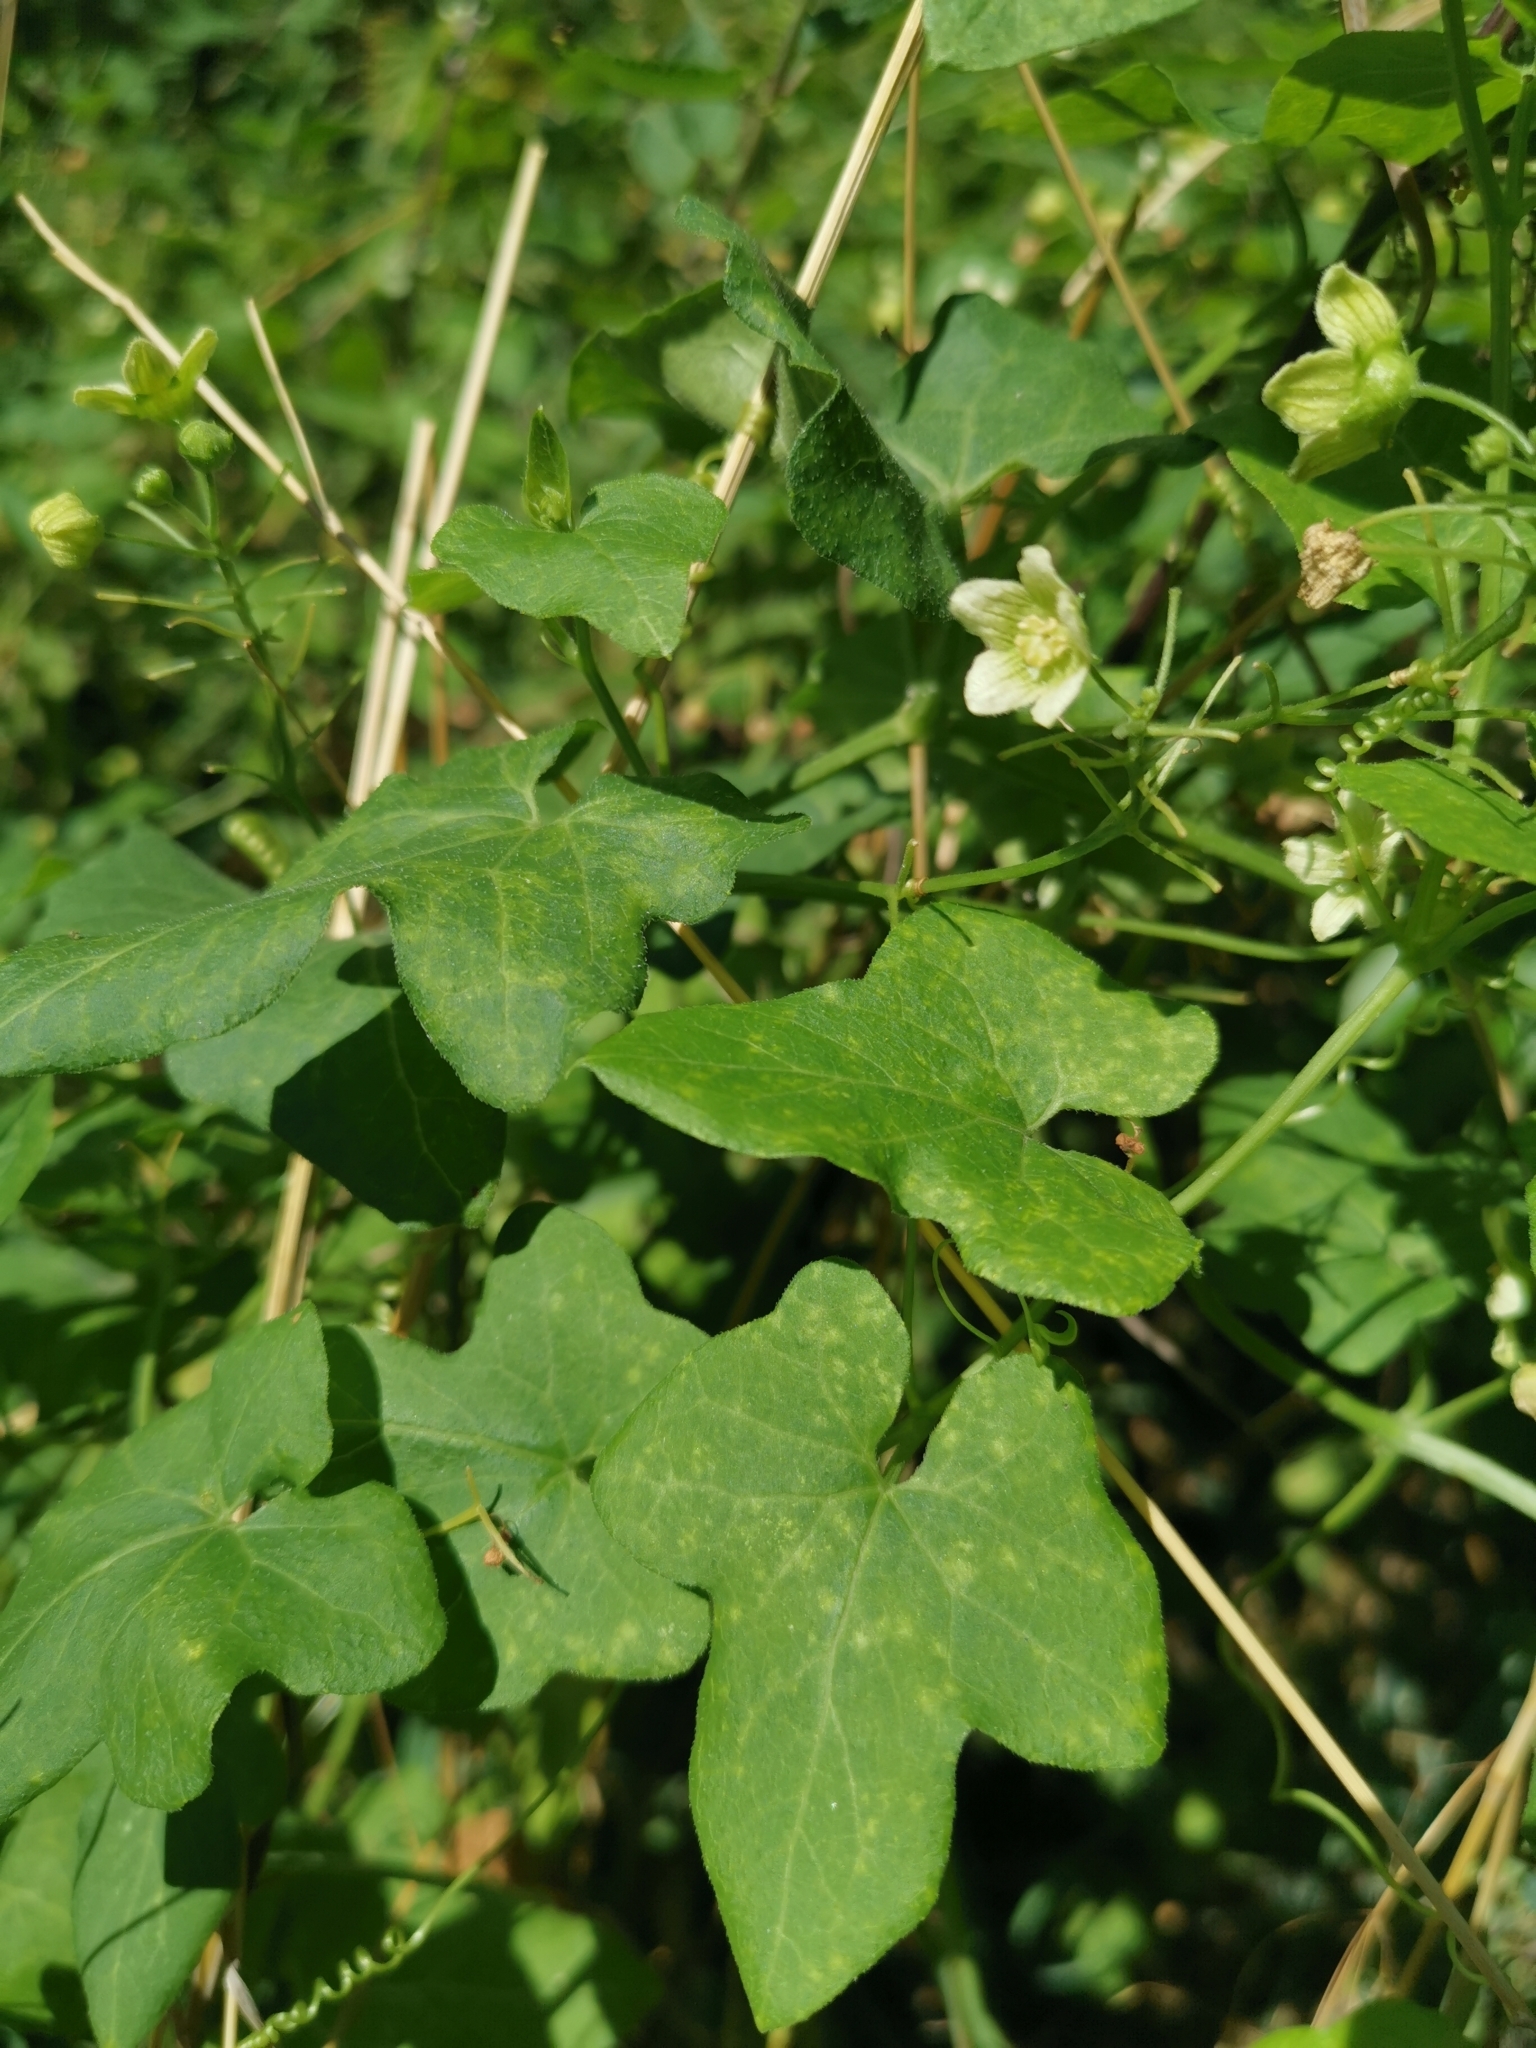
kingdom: Plantae
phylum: Tracheophyta
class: Magnoliopsida
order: Cucurbitales
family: Cucurbitaceae
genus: Bryonia
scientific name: Bryonia cretica
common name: Cretan bryony
